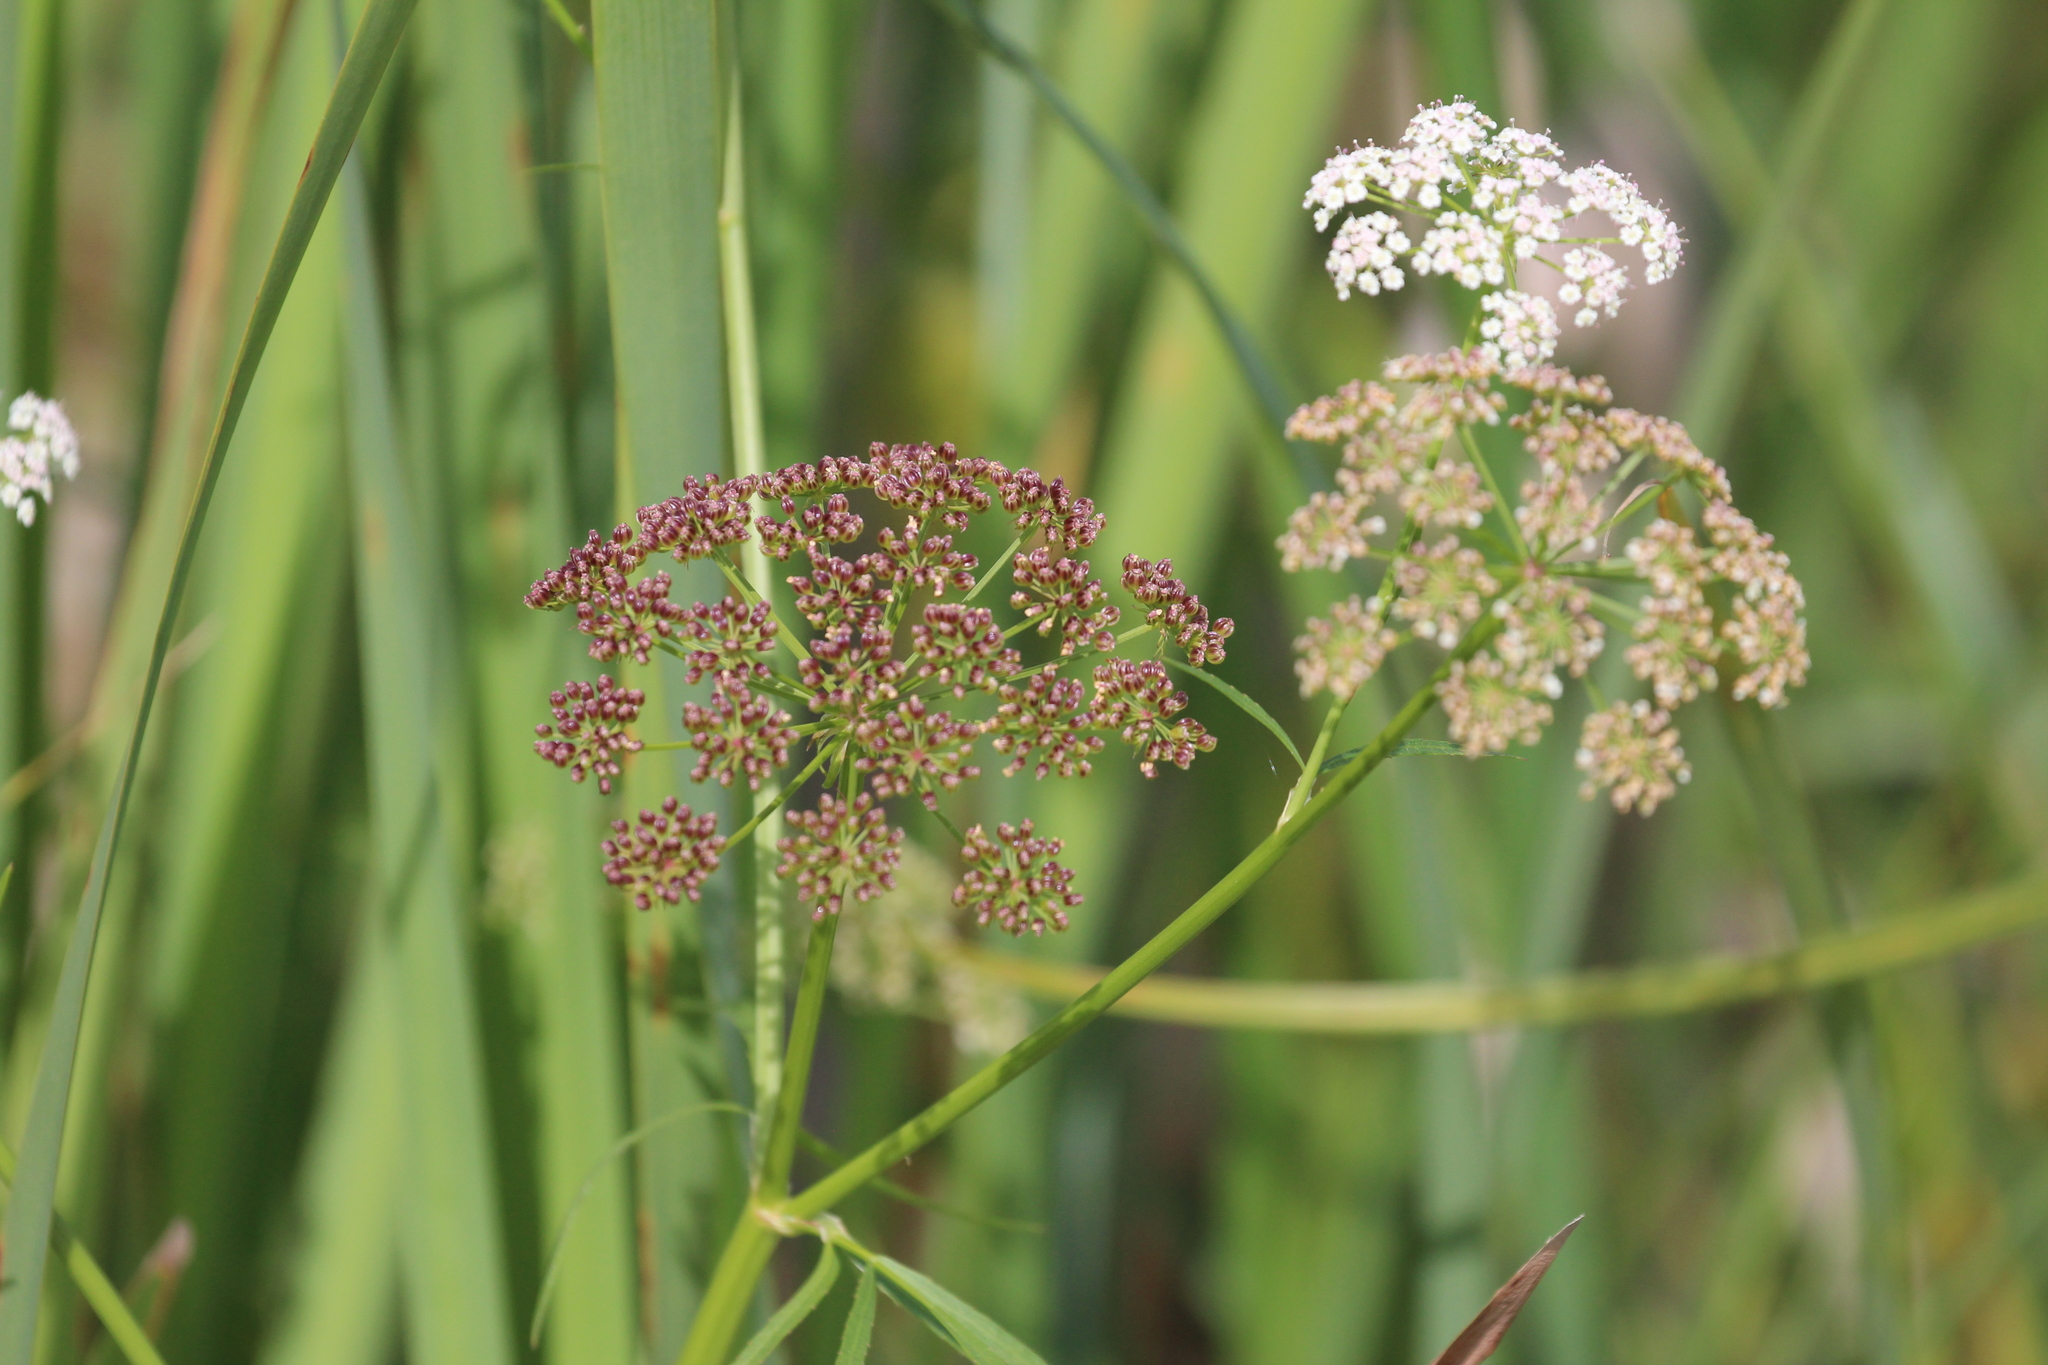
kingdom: Plantae
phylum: Tracheophyta
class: Magnoliopsida
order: Apiales
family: Apiaceae
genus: Sium
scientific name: Sium suave
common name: Hemlock water-parsnip
